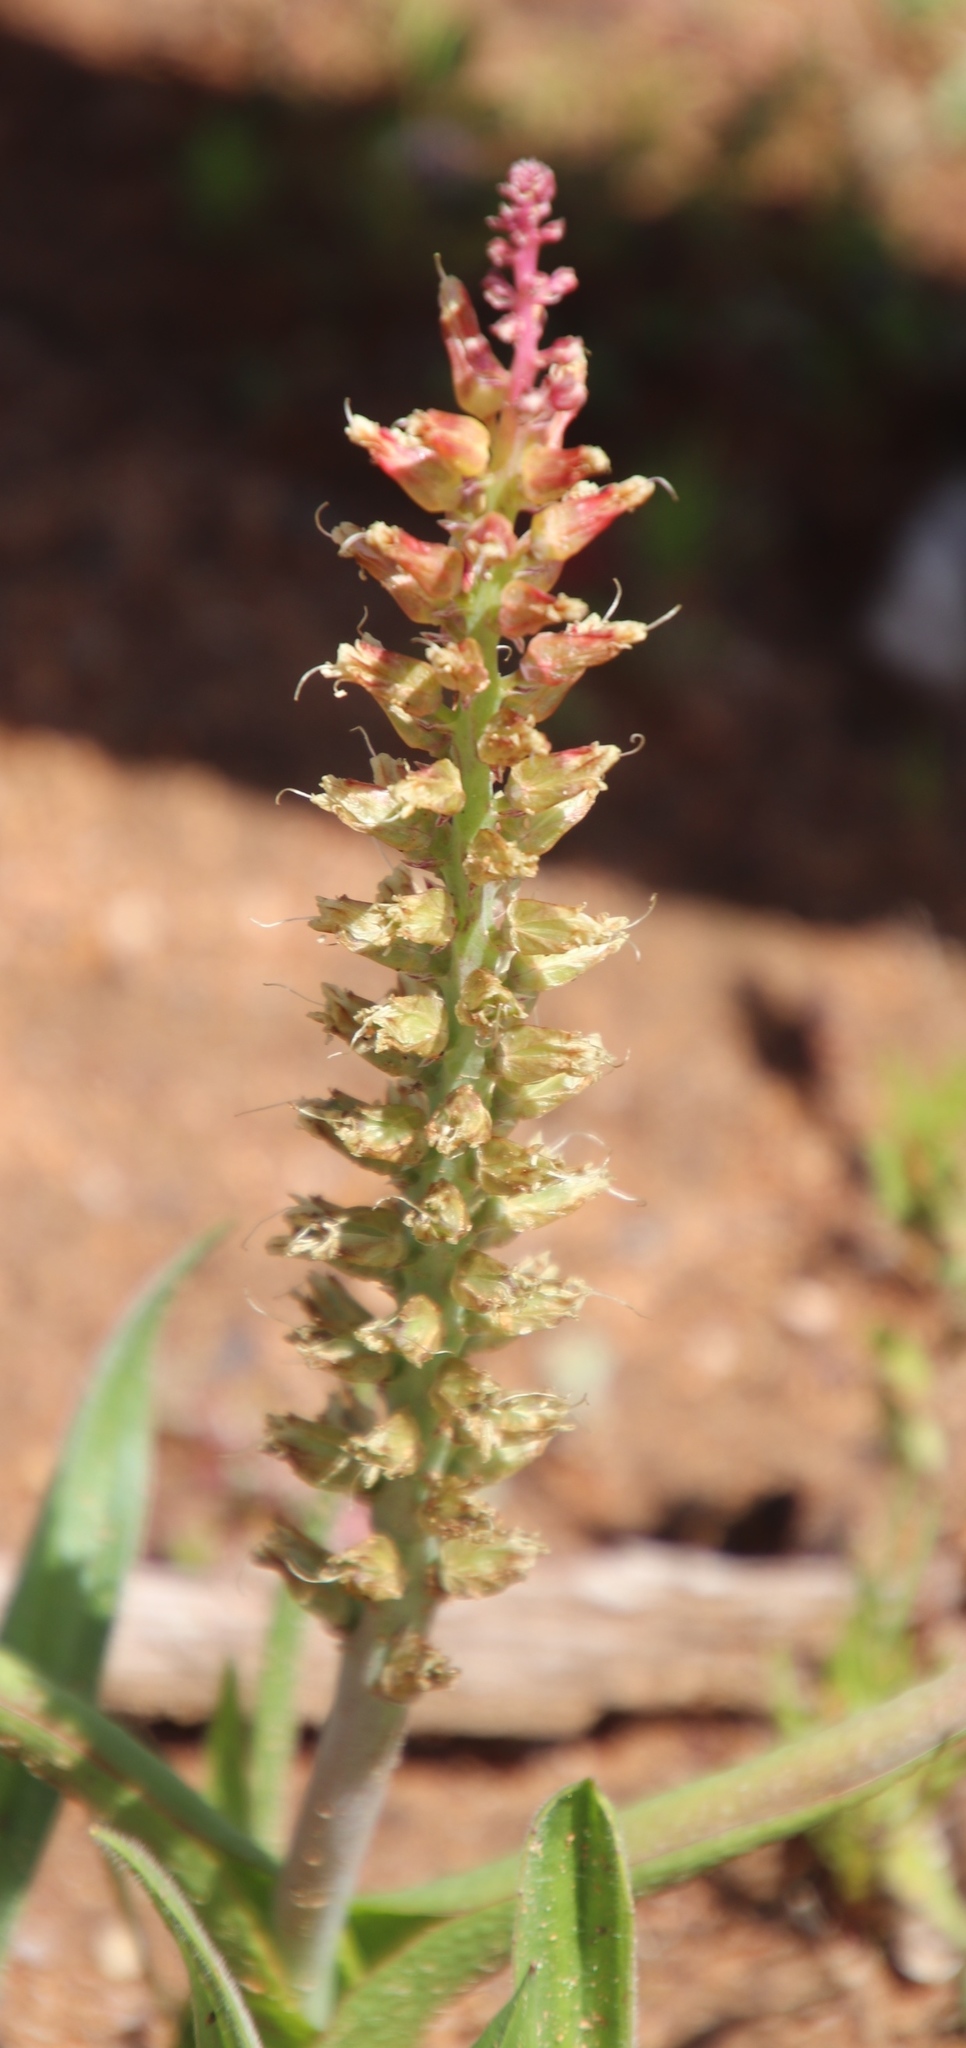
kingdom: Plantae
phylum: Tracheophyta
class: Liliopsida
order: Asparagales
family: Asparagaceae
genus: Lachenalia
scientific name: Lachenalia pallida
